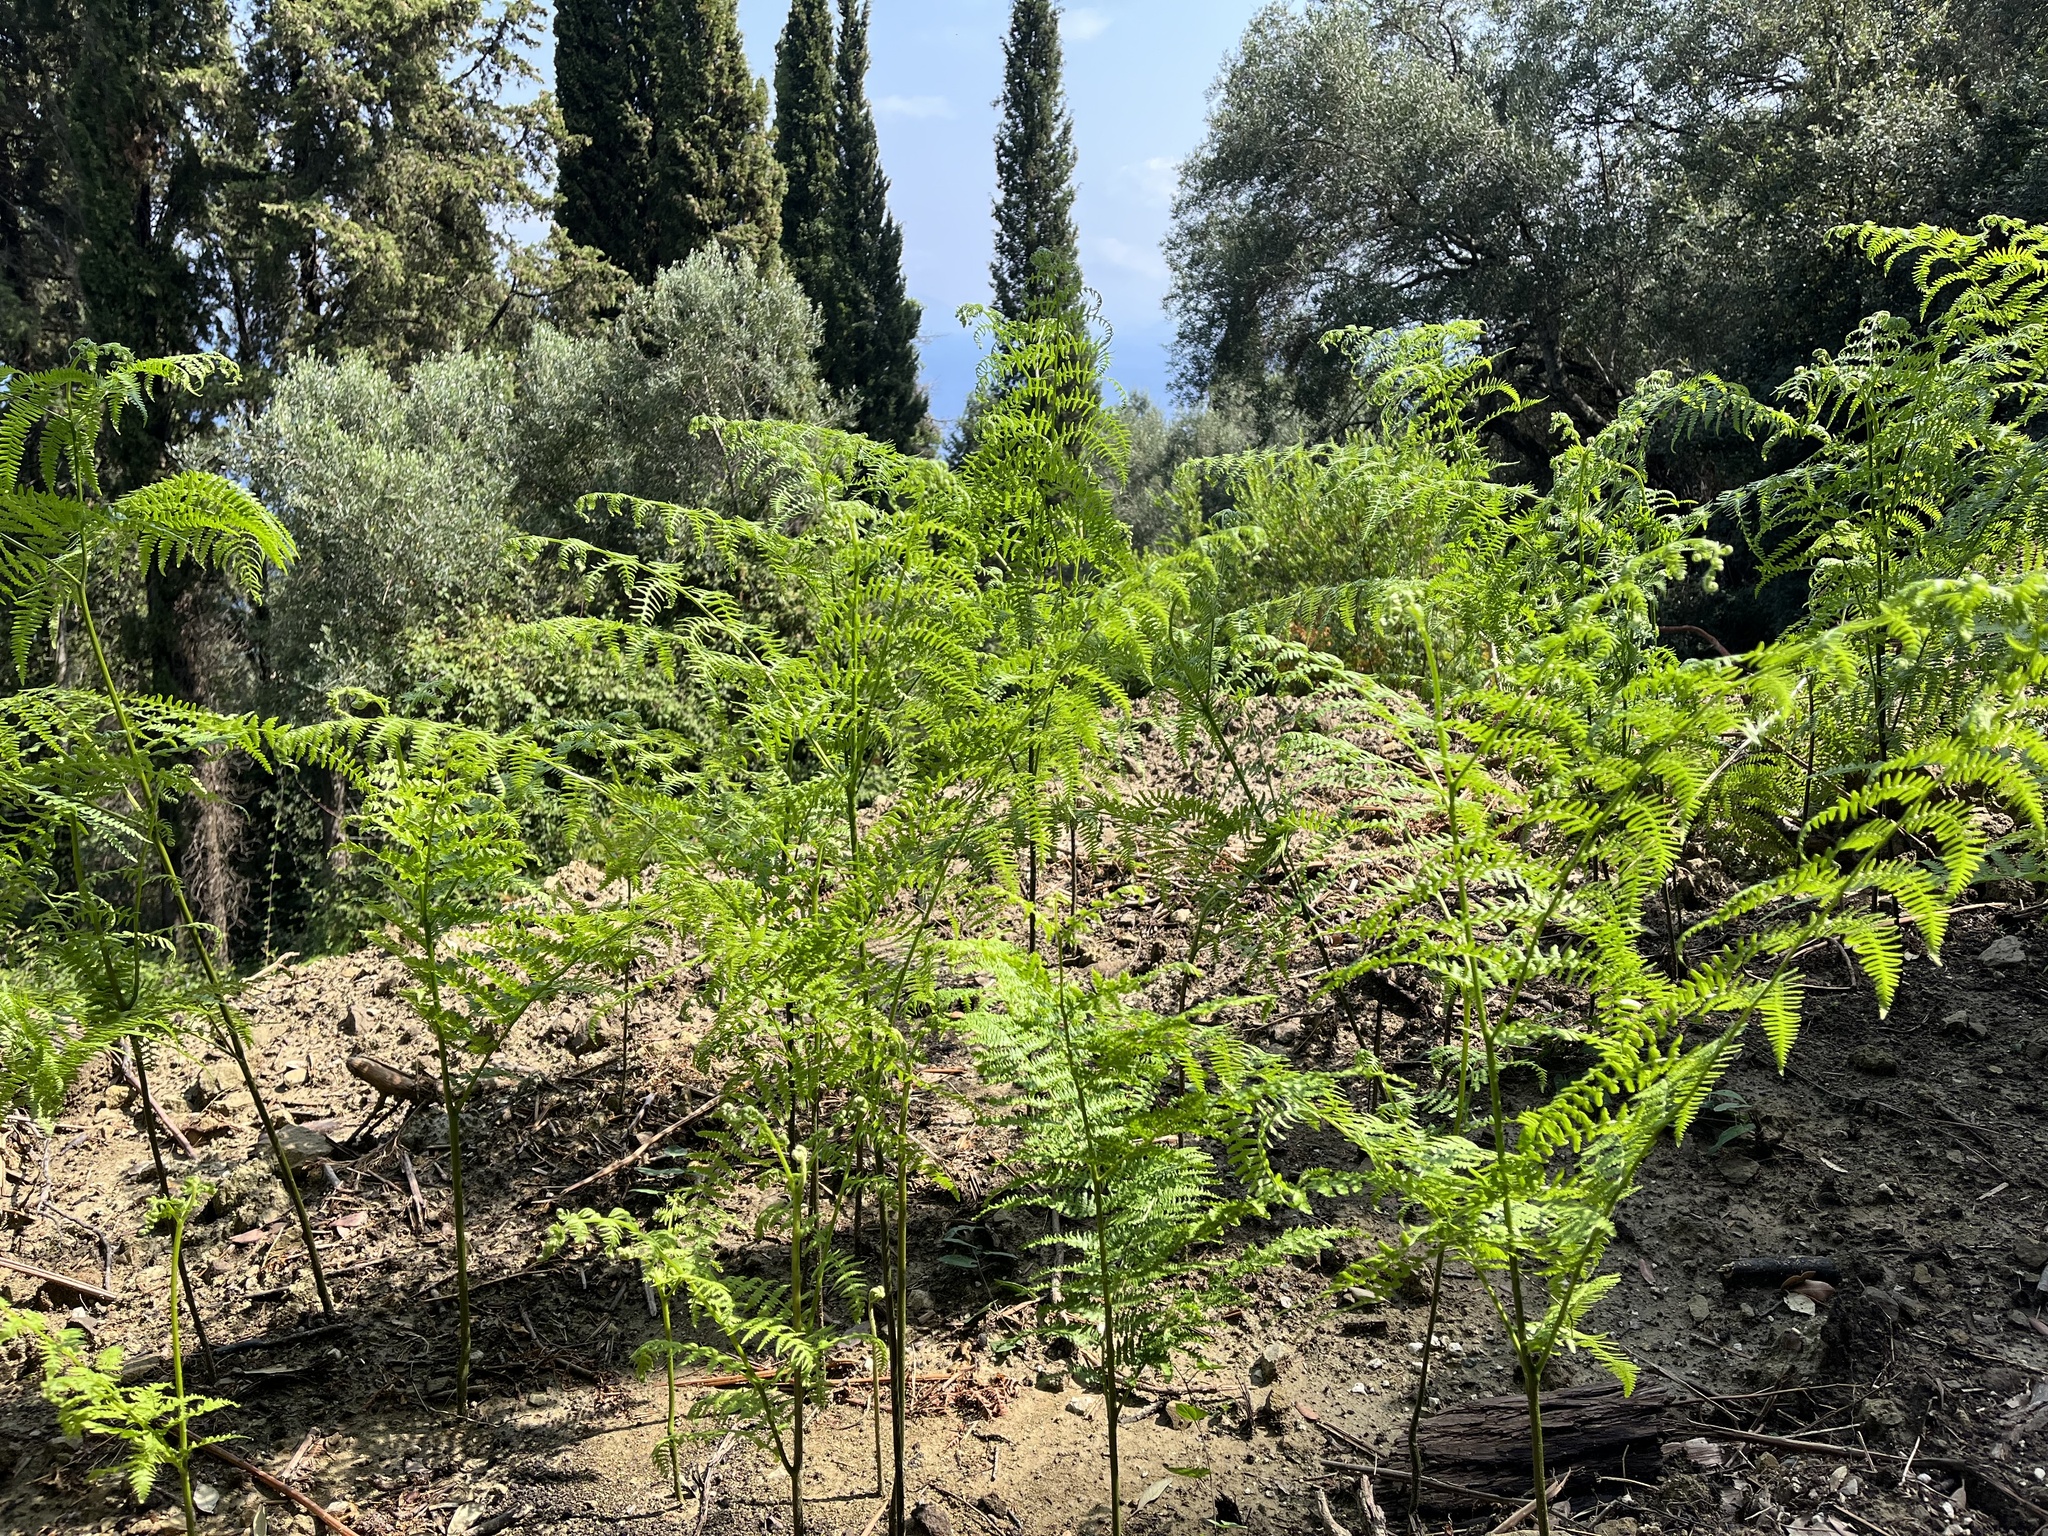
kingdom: Plantae
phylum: Tracheophyta
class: Polypodiopsida
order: Polypodiales
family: Dennstaedtiaceae
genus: Pteridium
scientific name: Pteridium aquilinum
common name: Bracken
